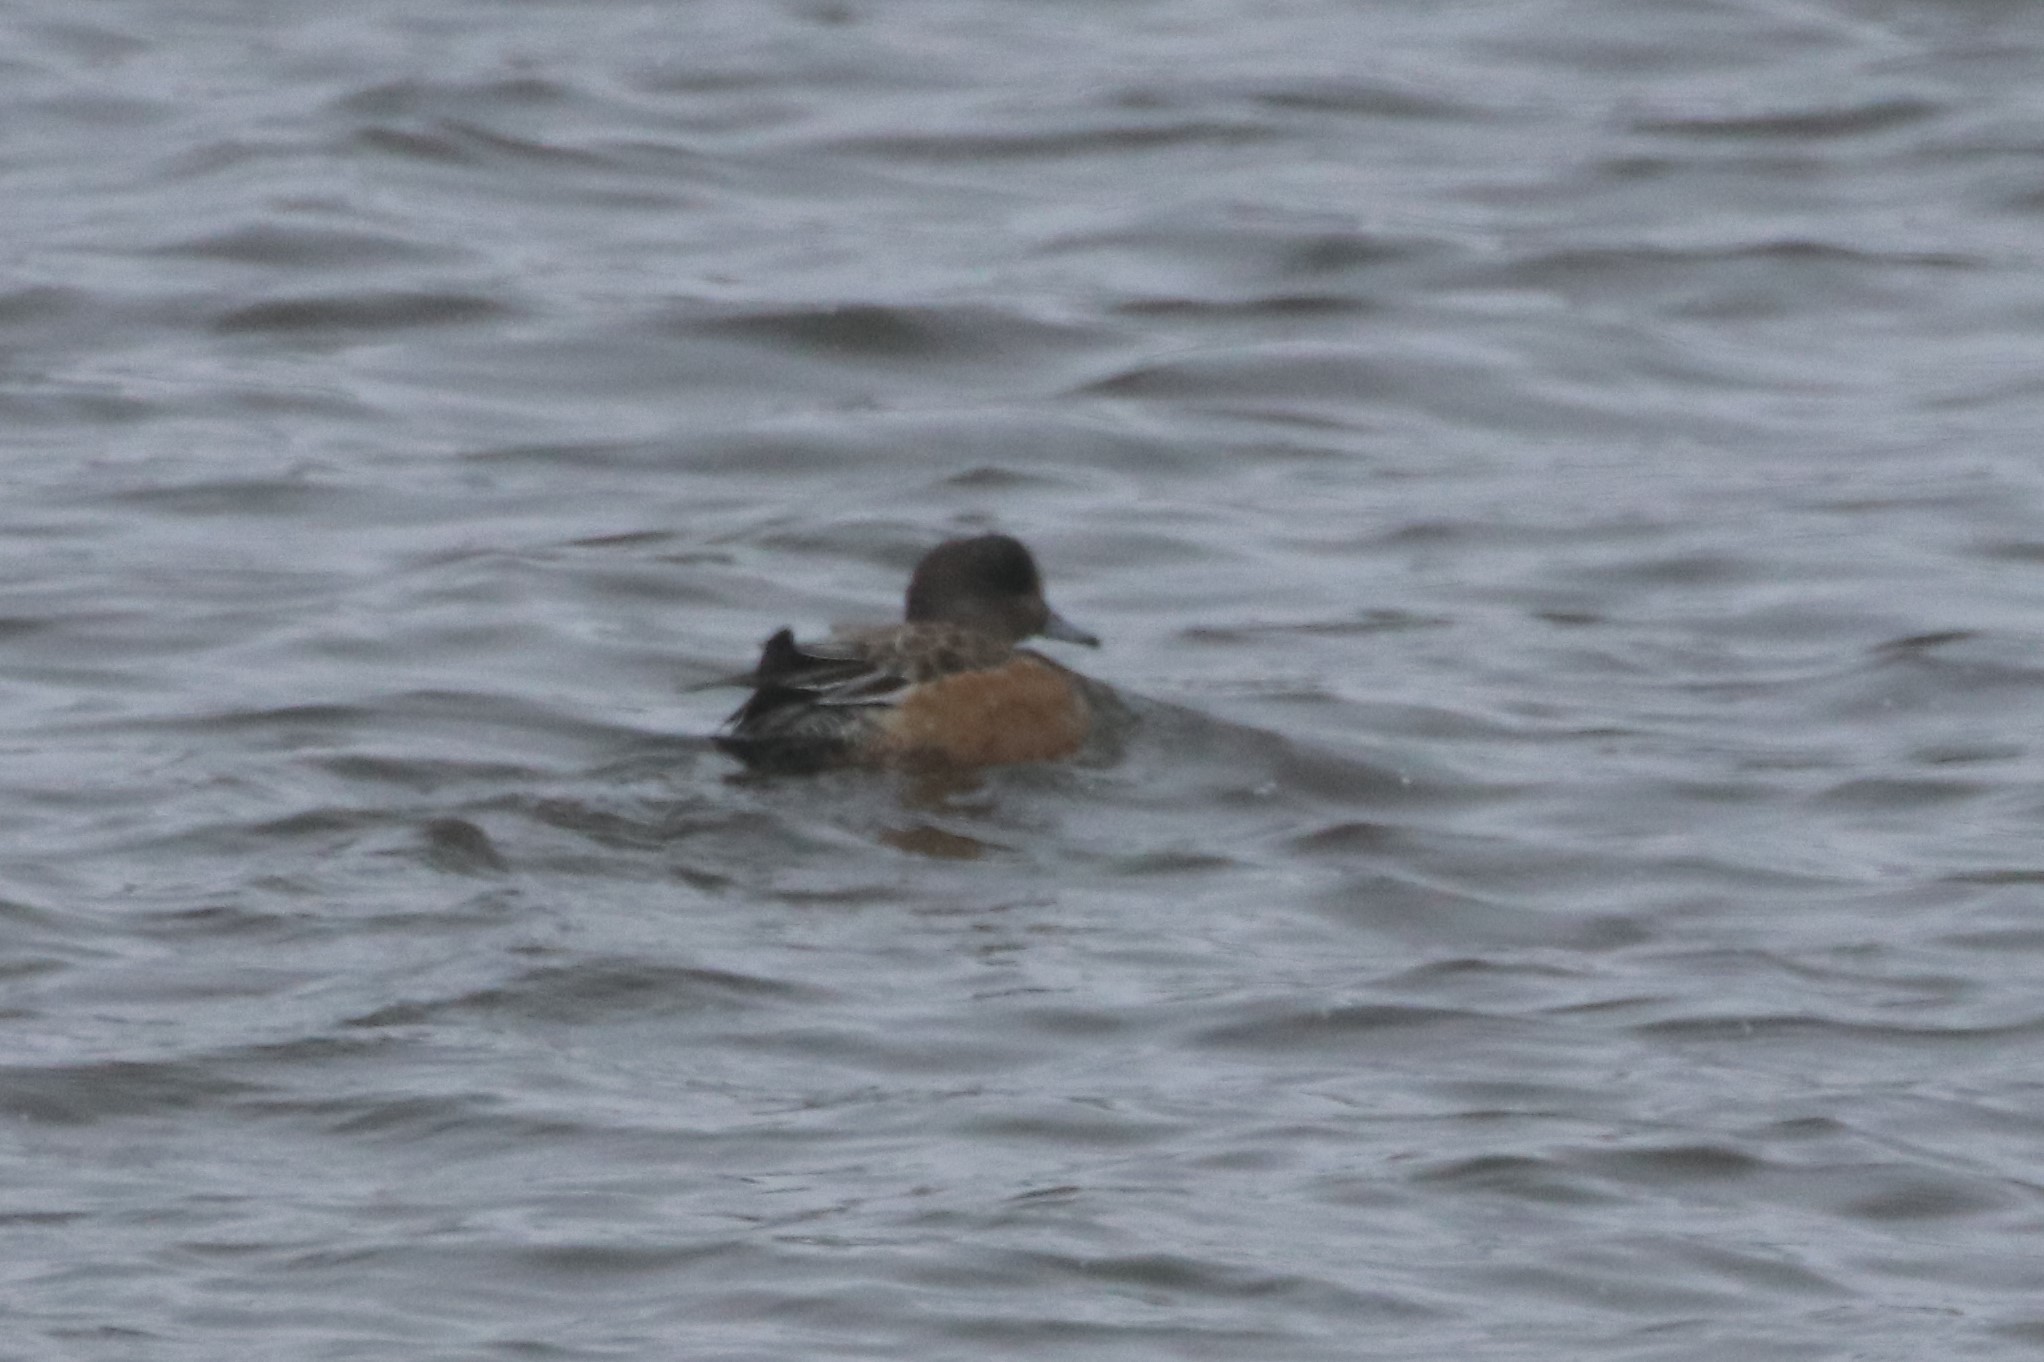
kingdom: Animalia
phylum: Chordata
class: Aves
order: Anseriformes
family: Anatidae
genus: Mareca
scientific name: Mareca americana
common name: American wigeon
